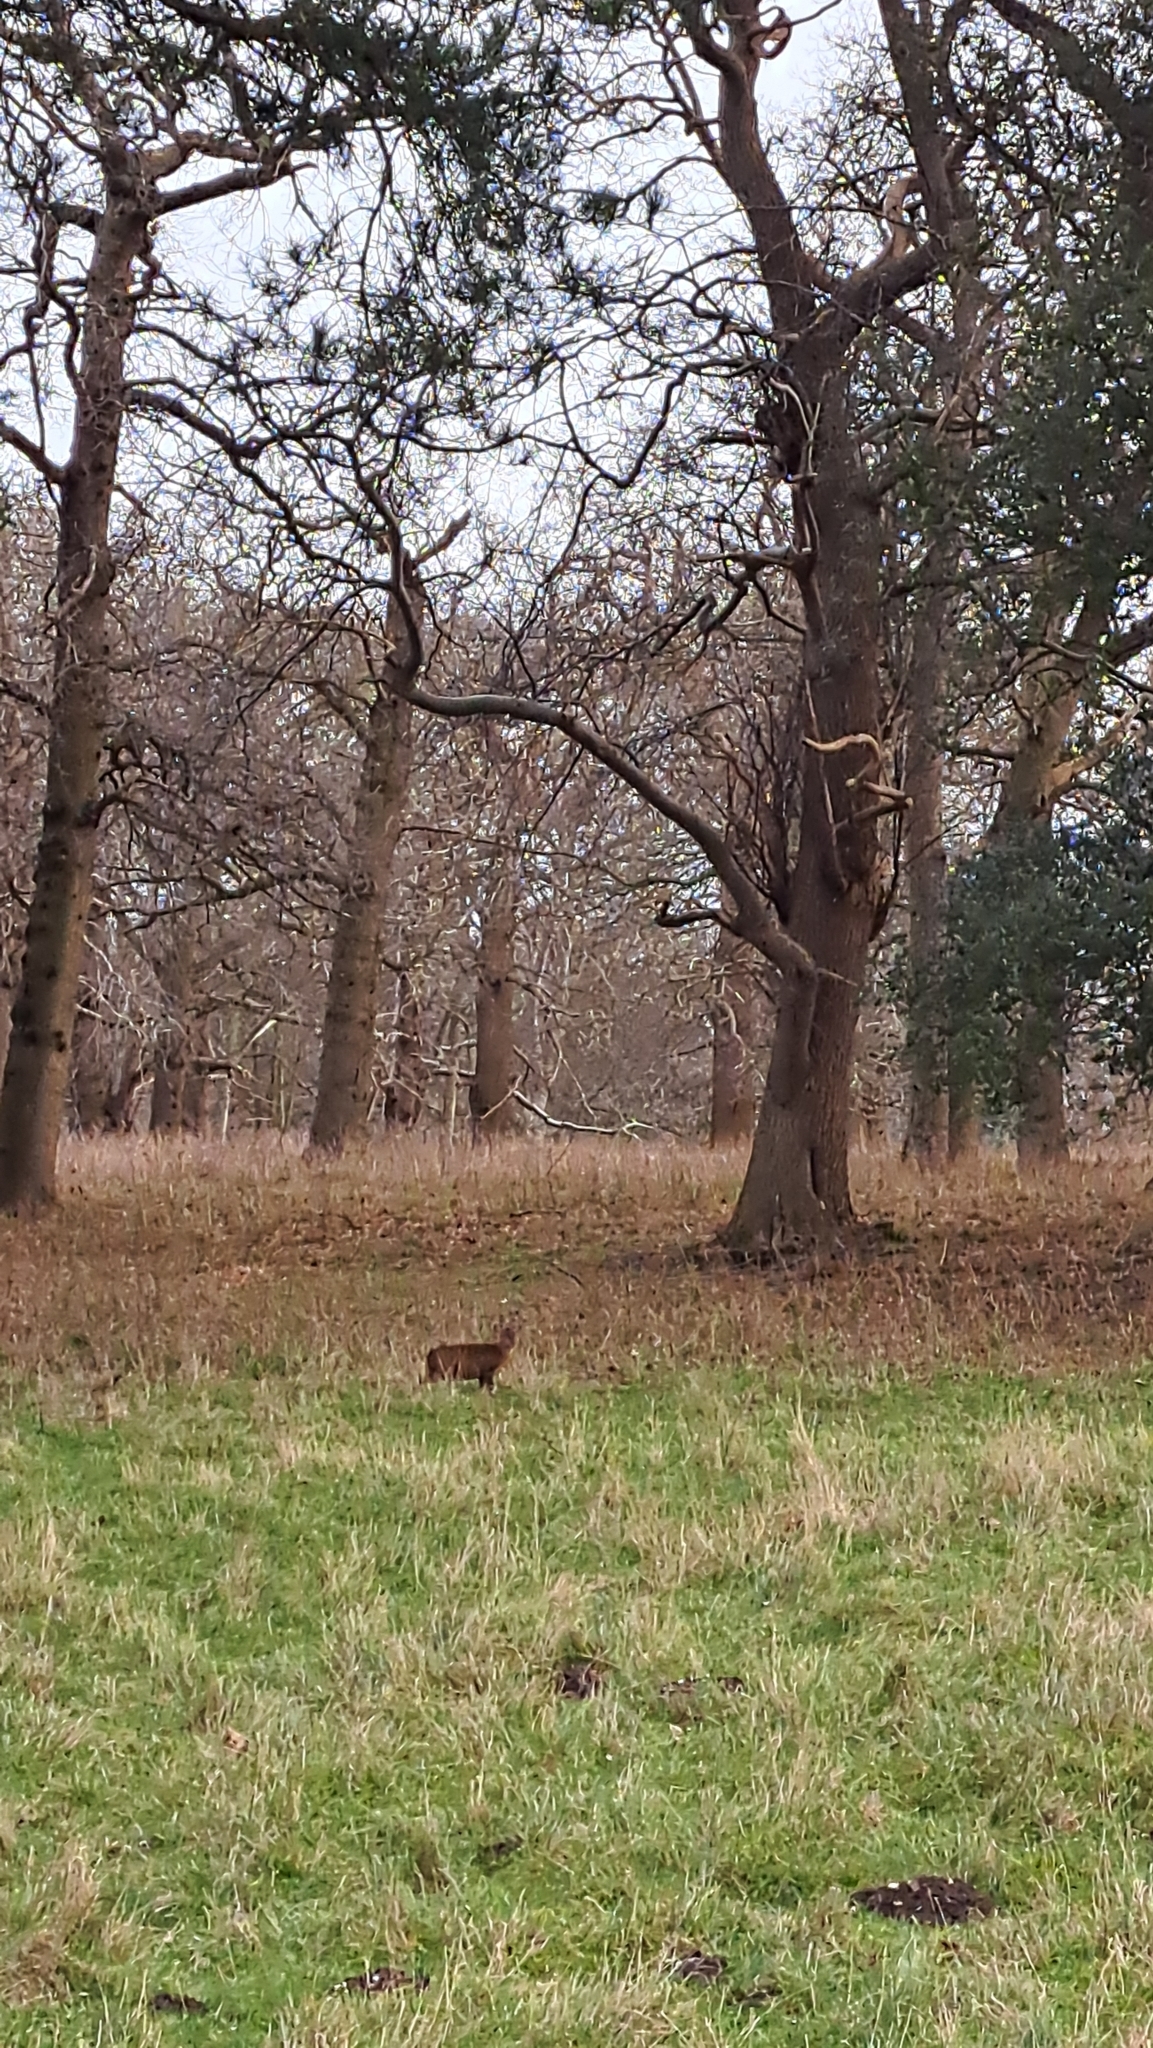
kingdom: Animalia
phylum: Chordata
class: Mammalia
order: Artiodactyla
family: Cervidae
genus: Muntiacus
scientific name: Muntiacus reevesi
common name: Reeves' muntjac
